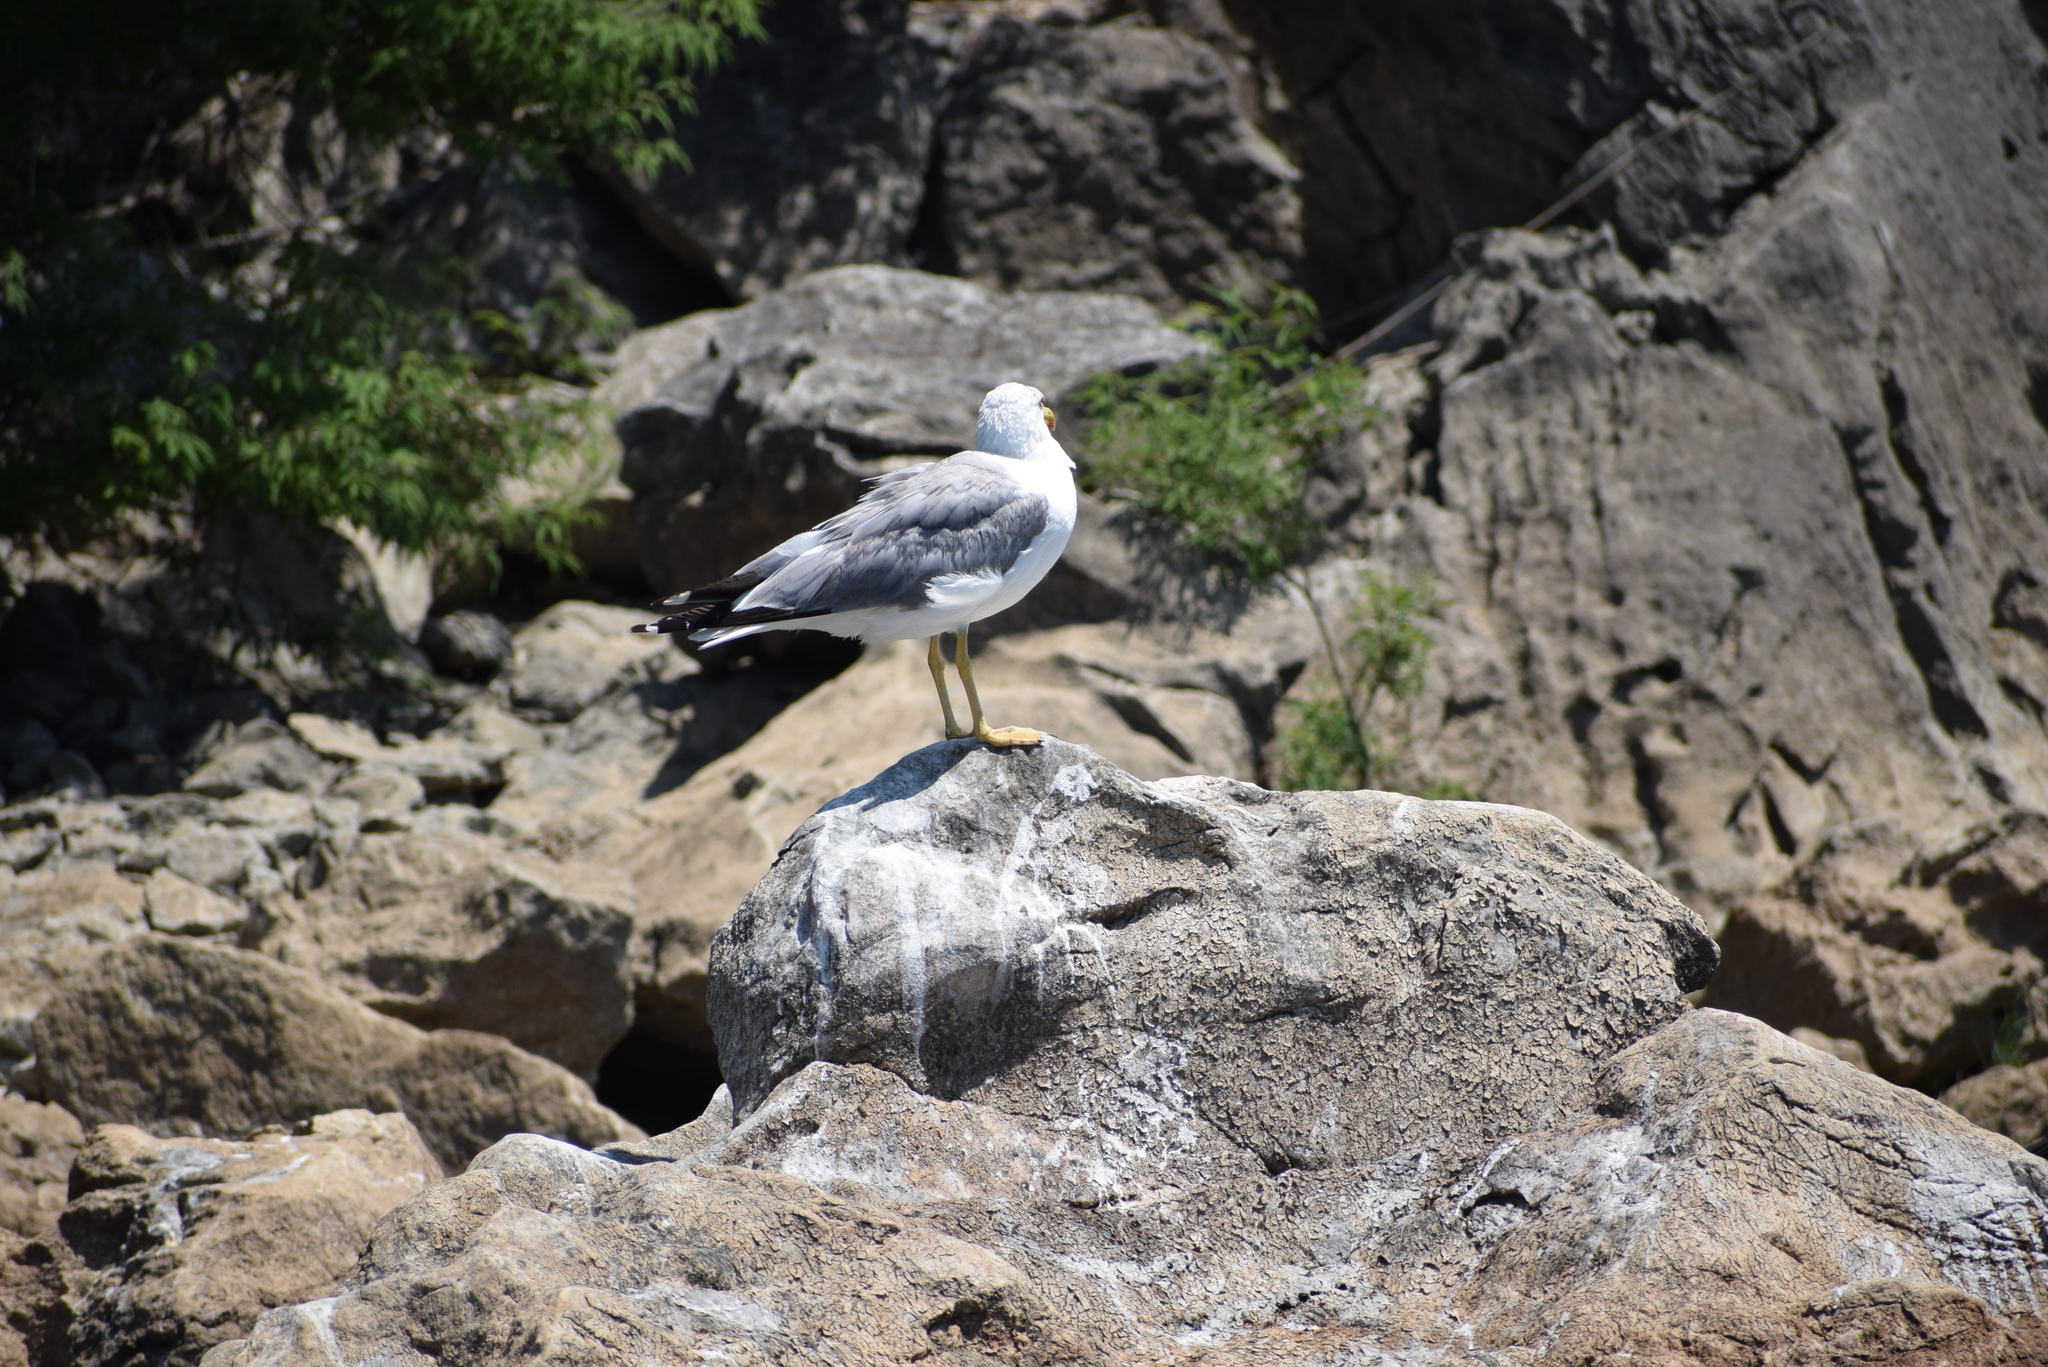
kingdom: Animalia
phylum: Chordata
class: Aves
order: Charadriiformes
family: Laridae
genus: Larus
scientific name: Larus michahellis
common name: Yellow-legged gull
